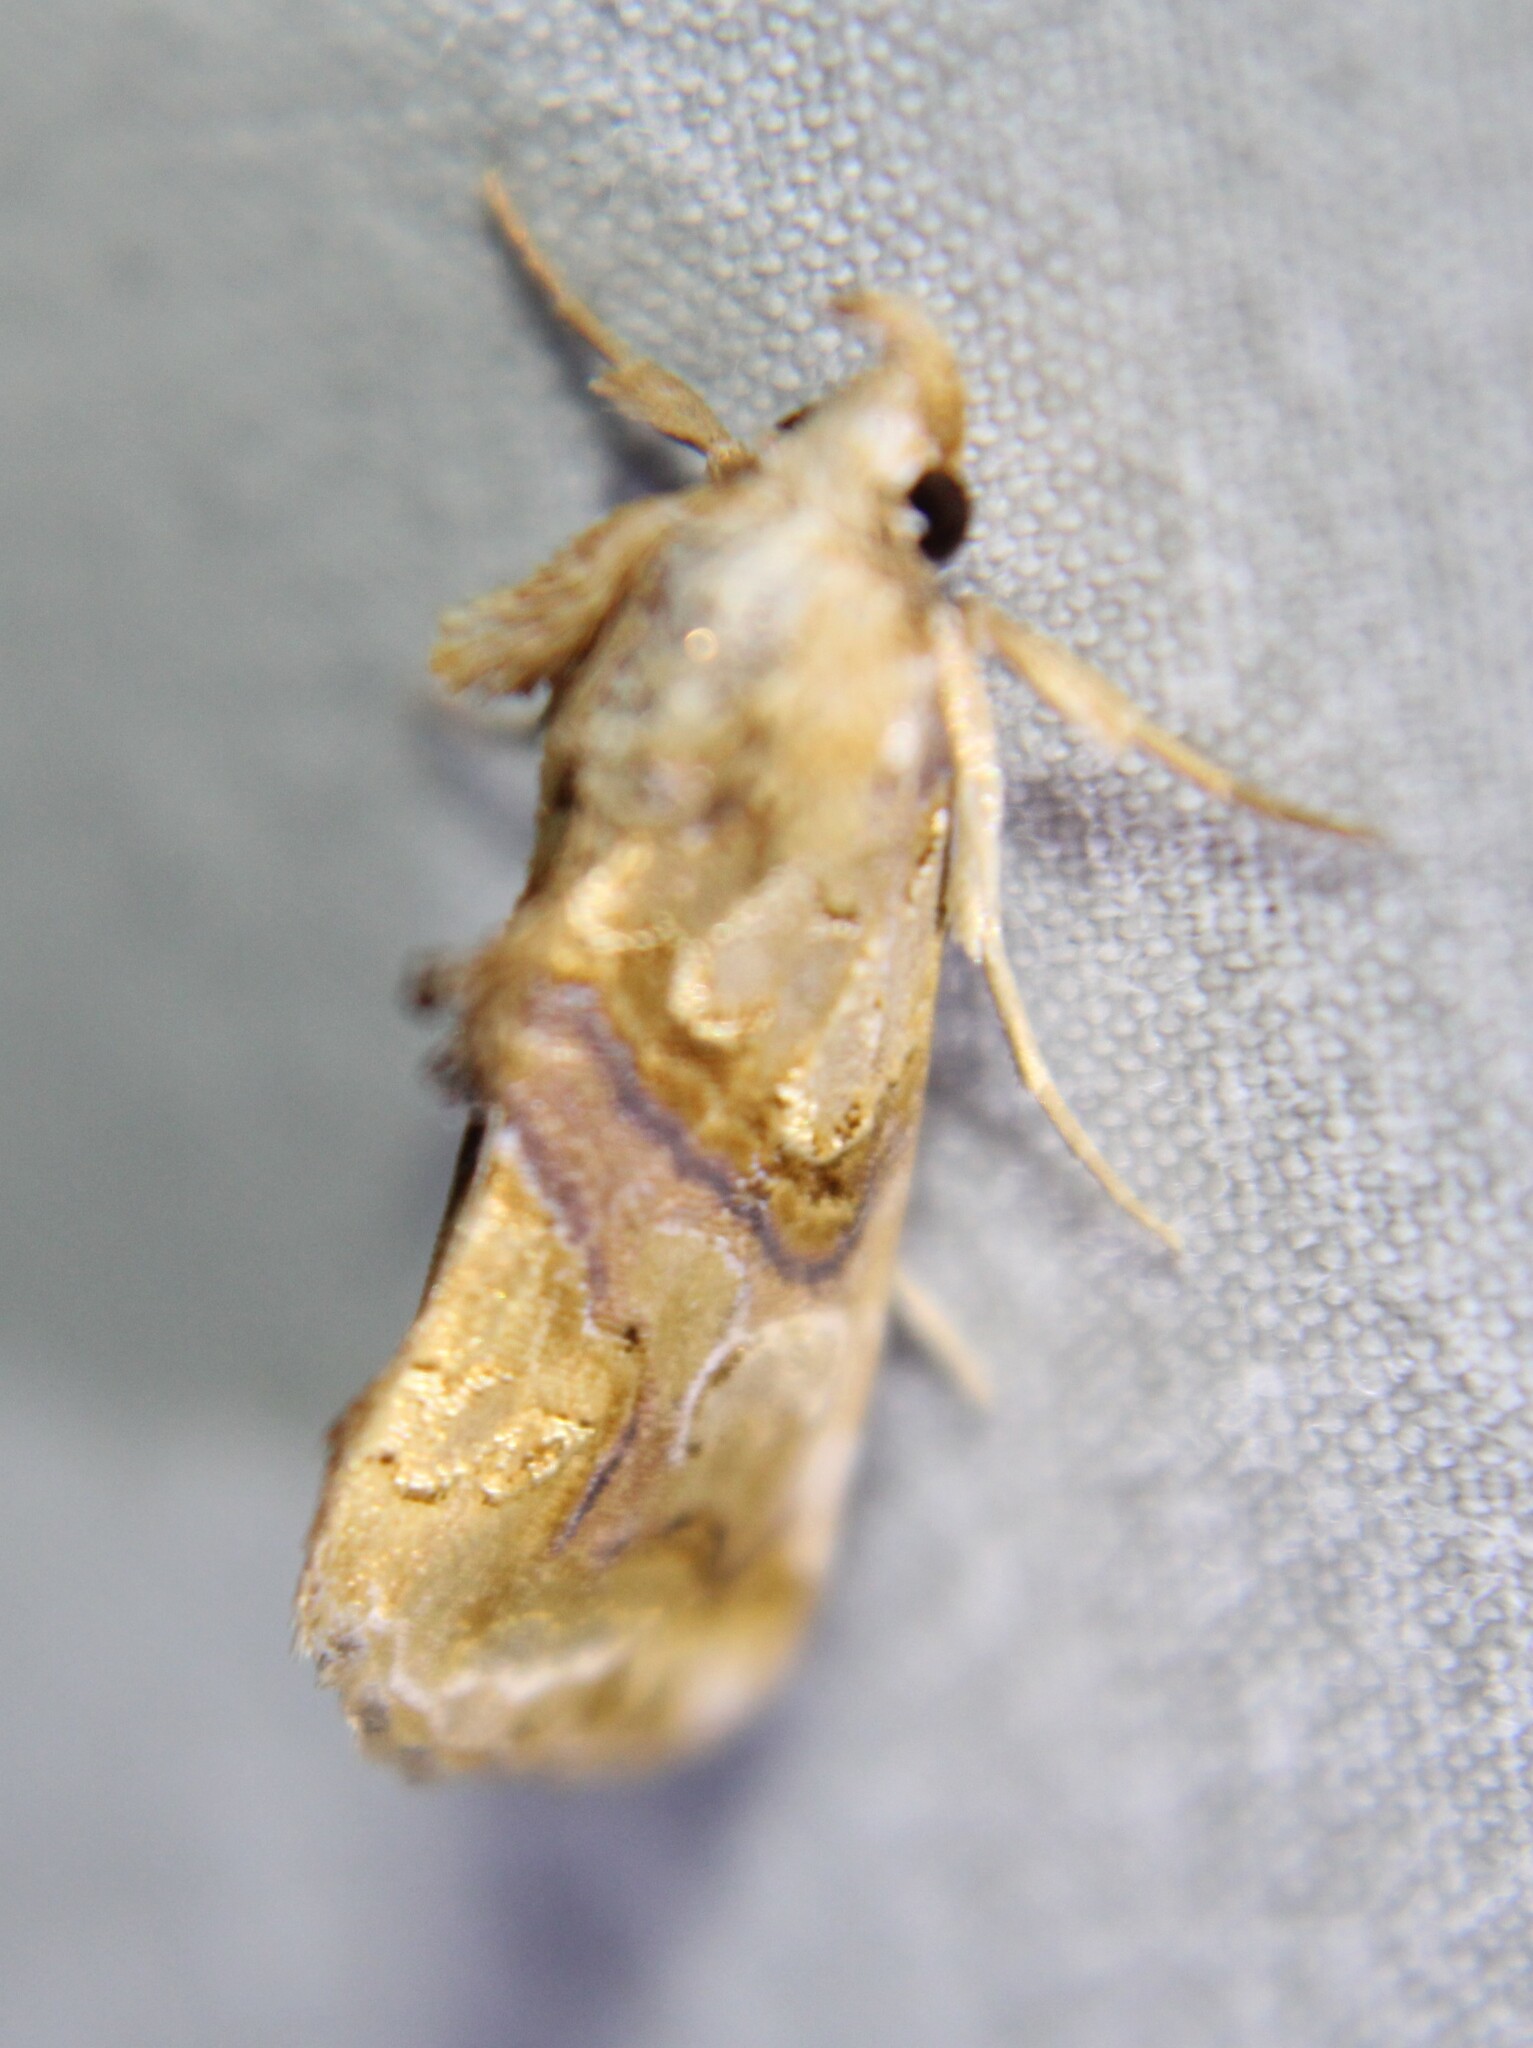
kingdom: Animalia
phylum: Arthropoda
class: Insecta
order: Lepidoptera
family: Erebidae
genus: Plusiodonta
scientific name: Plusiodonta compressipalpis
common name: Moonseed moth
